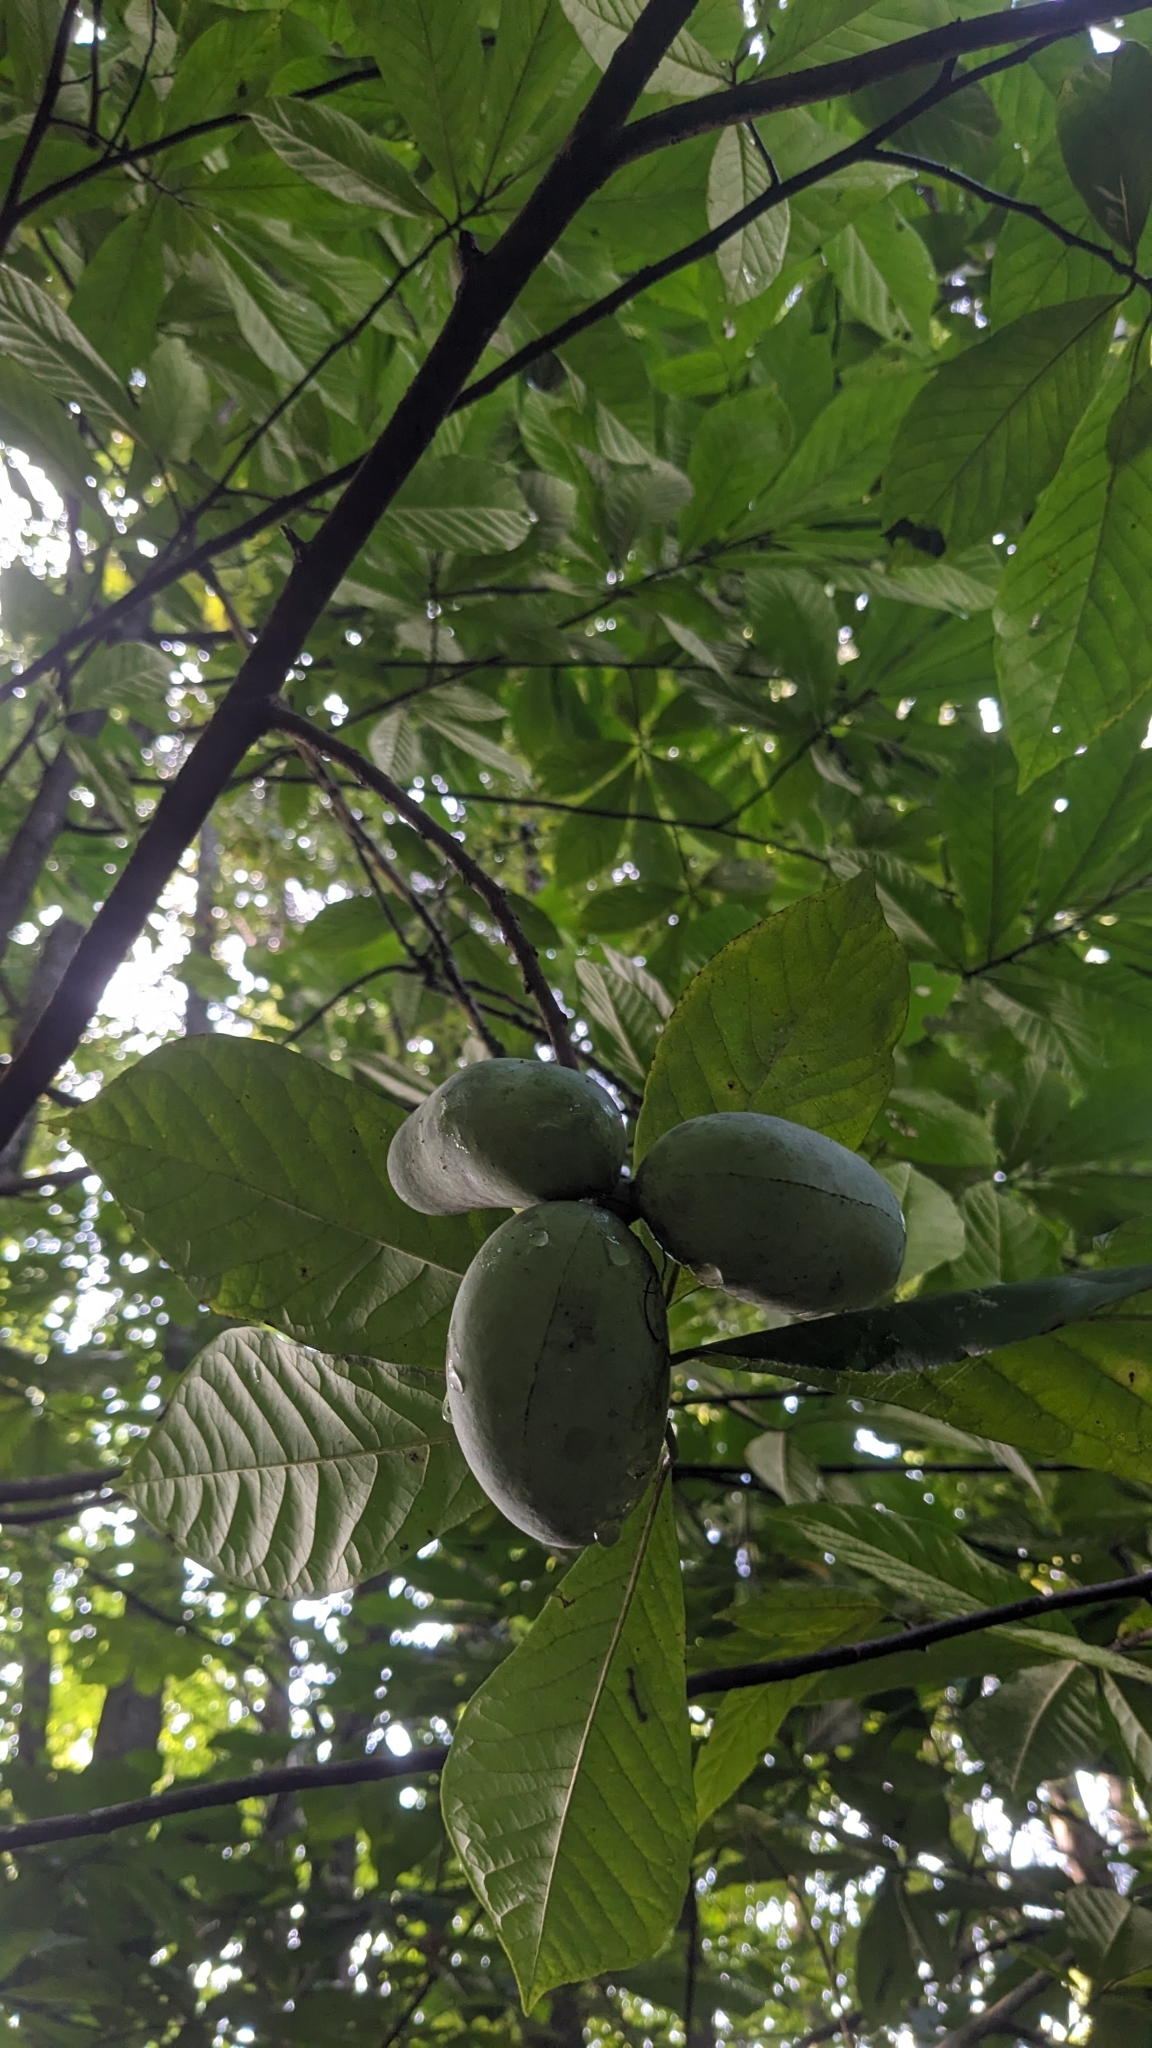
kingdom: Plantae
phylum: Tracheophyta
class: Magnoliopsida
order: Magnoliales
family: Annonaceae
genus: Asimina
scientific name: Asimina triloba
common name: Dog-banana
